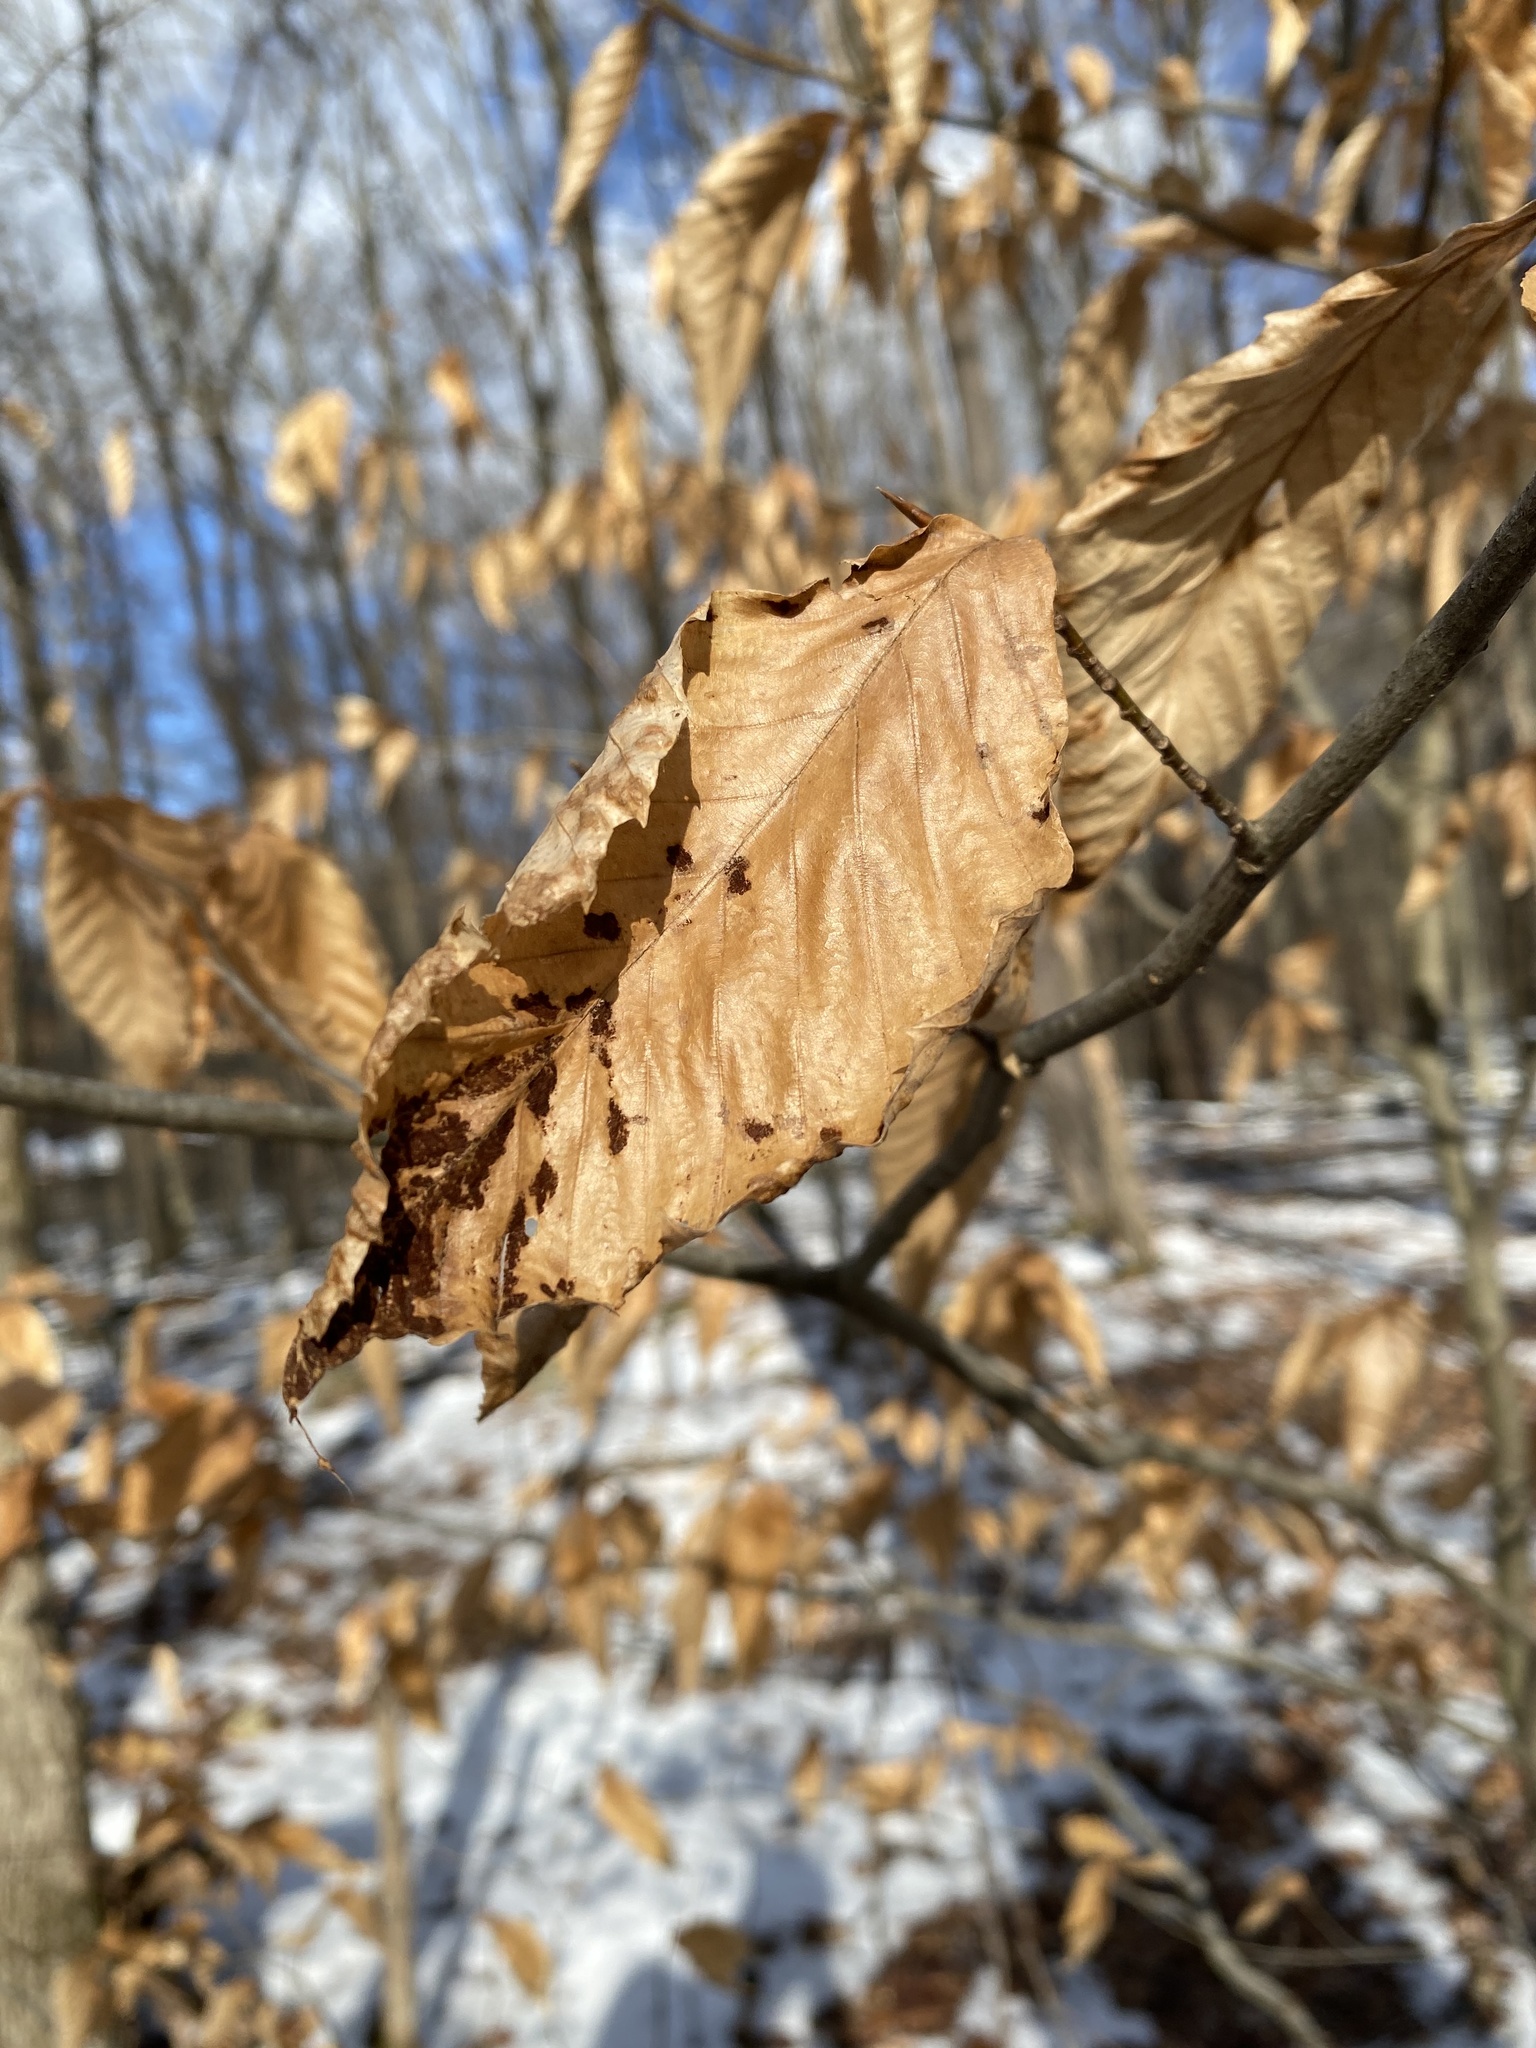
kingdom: Plantae
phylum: Tracheophyta
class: Magnoliopsida
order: Fagales
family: Fagaceae
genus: Fagus
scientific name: Fagus grandifolia
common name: American beech
